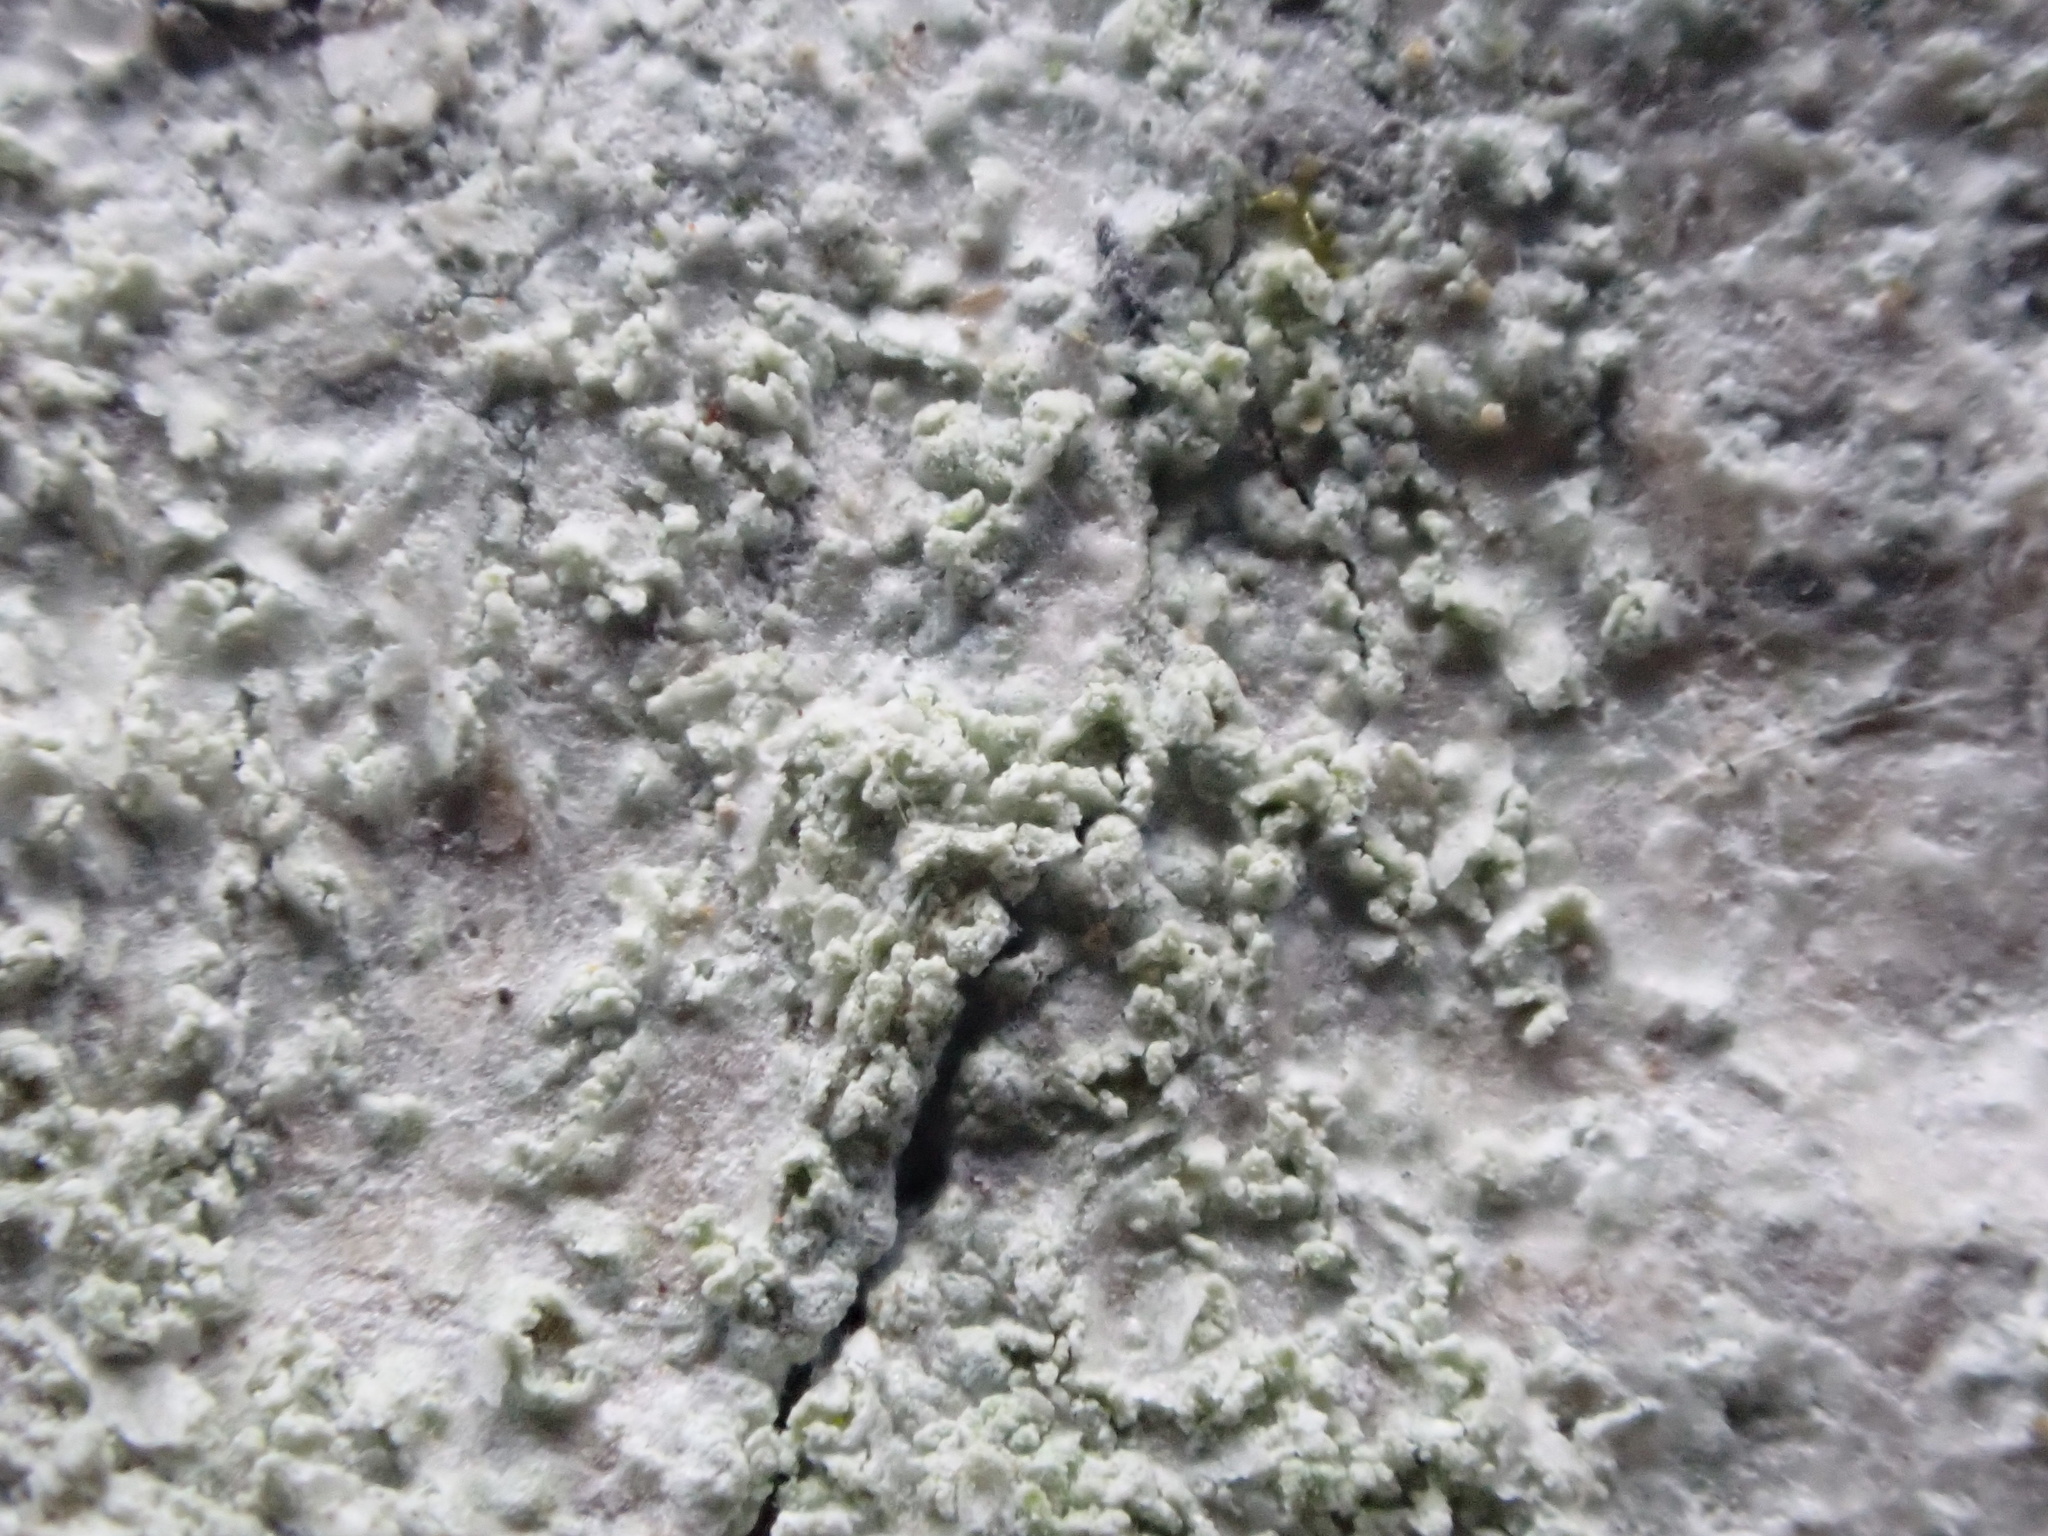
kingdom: Fungi
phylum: Ascomycota
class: Lecanoromycetes
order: Ostropales
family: Phlyctidaceae
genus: Phlyctis
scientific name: Phlyctis argena
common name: Whitewash lichen
